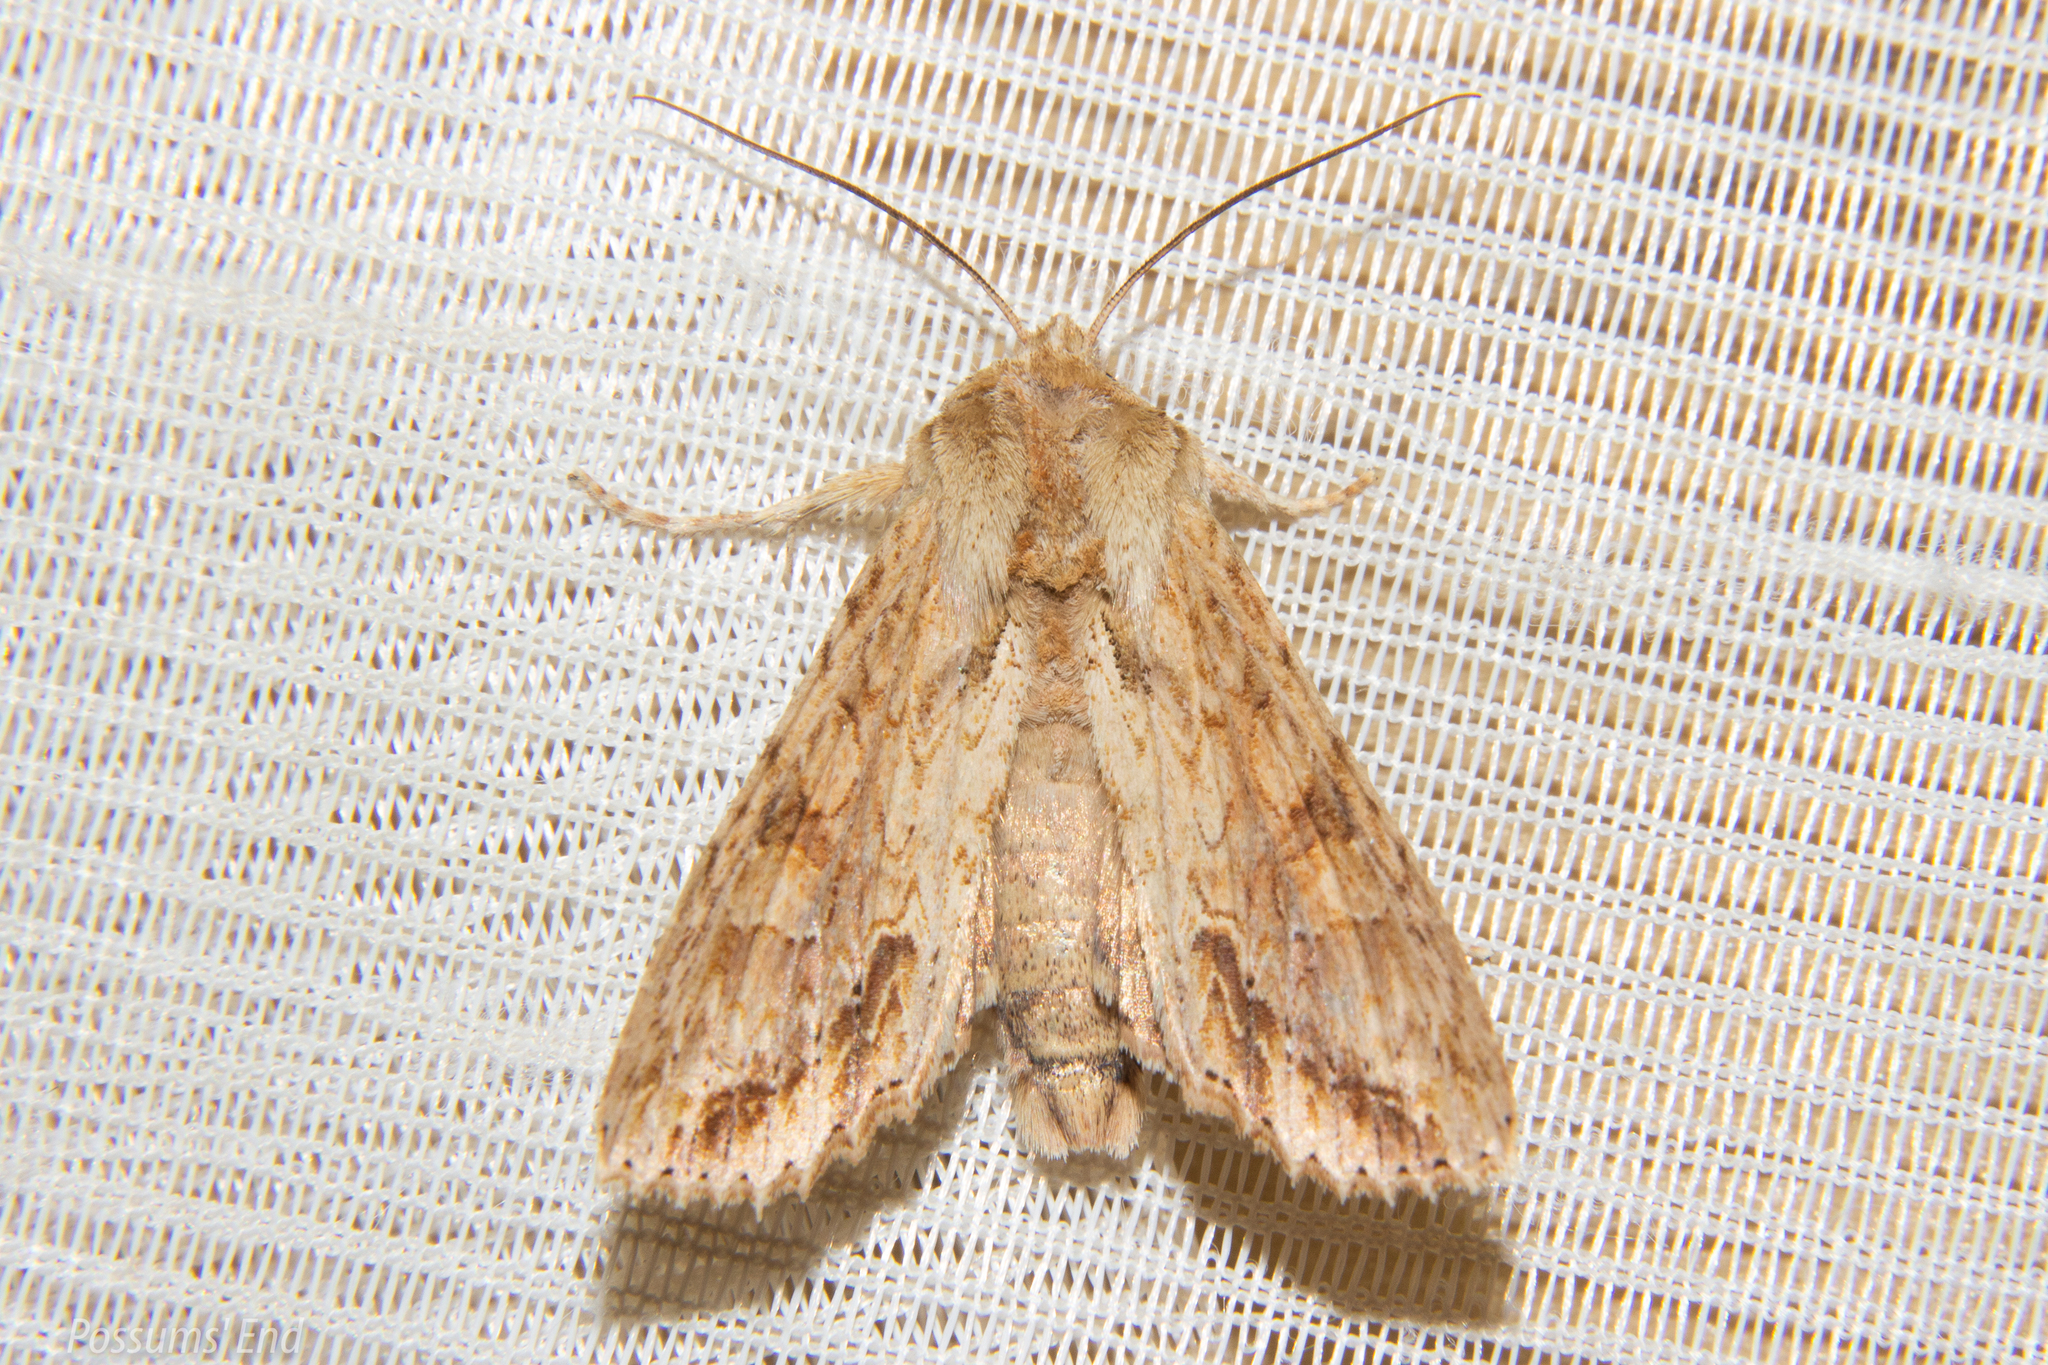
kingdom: Animalia
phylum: Arthropoda
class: Insecta
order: Lepidoptera
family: Noctuidae
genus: Ichneutica
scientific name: Ichneutica mollis
